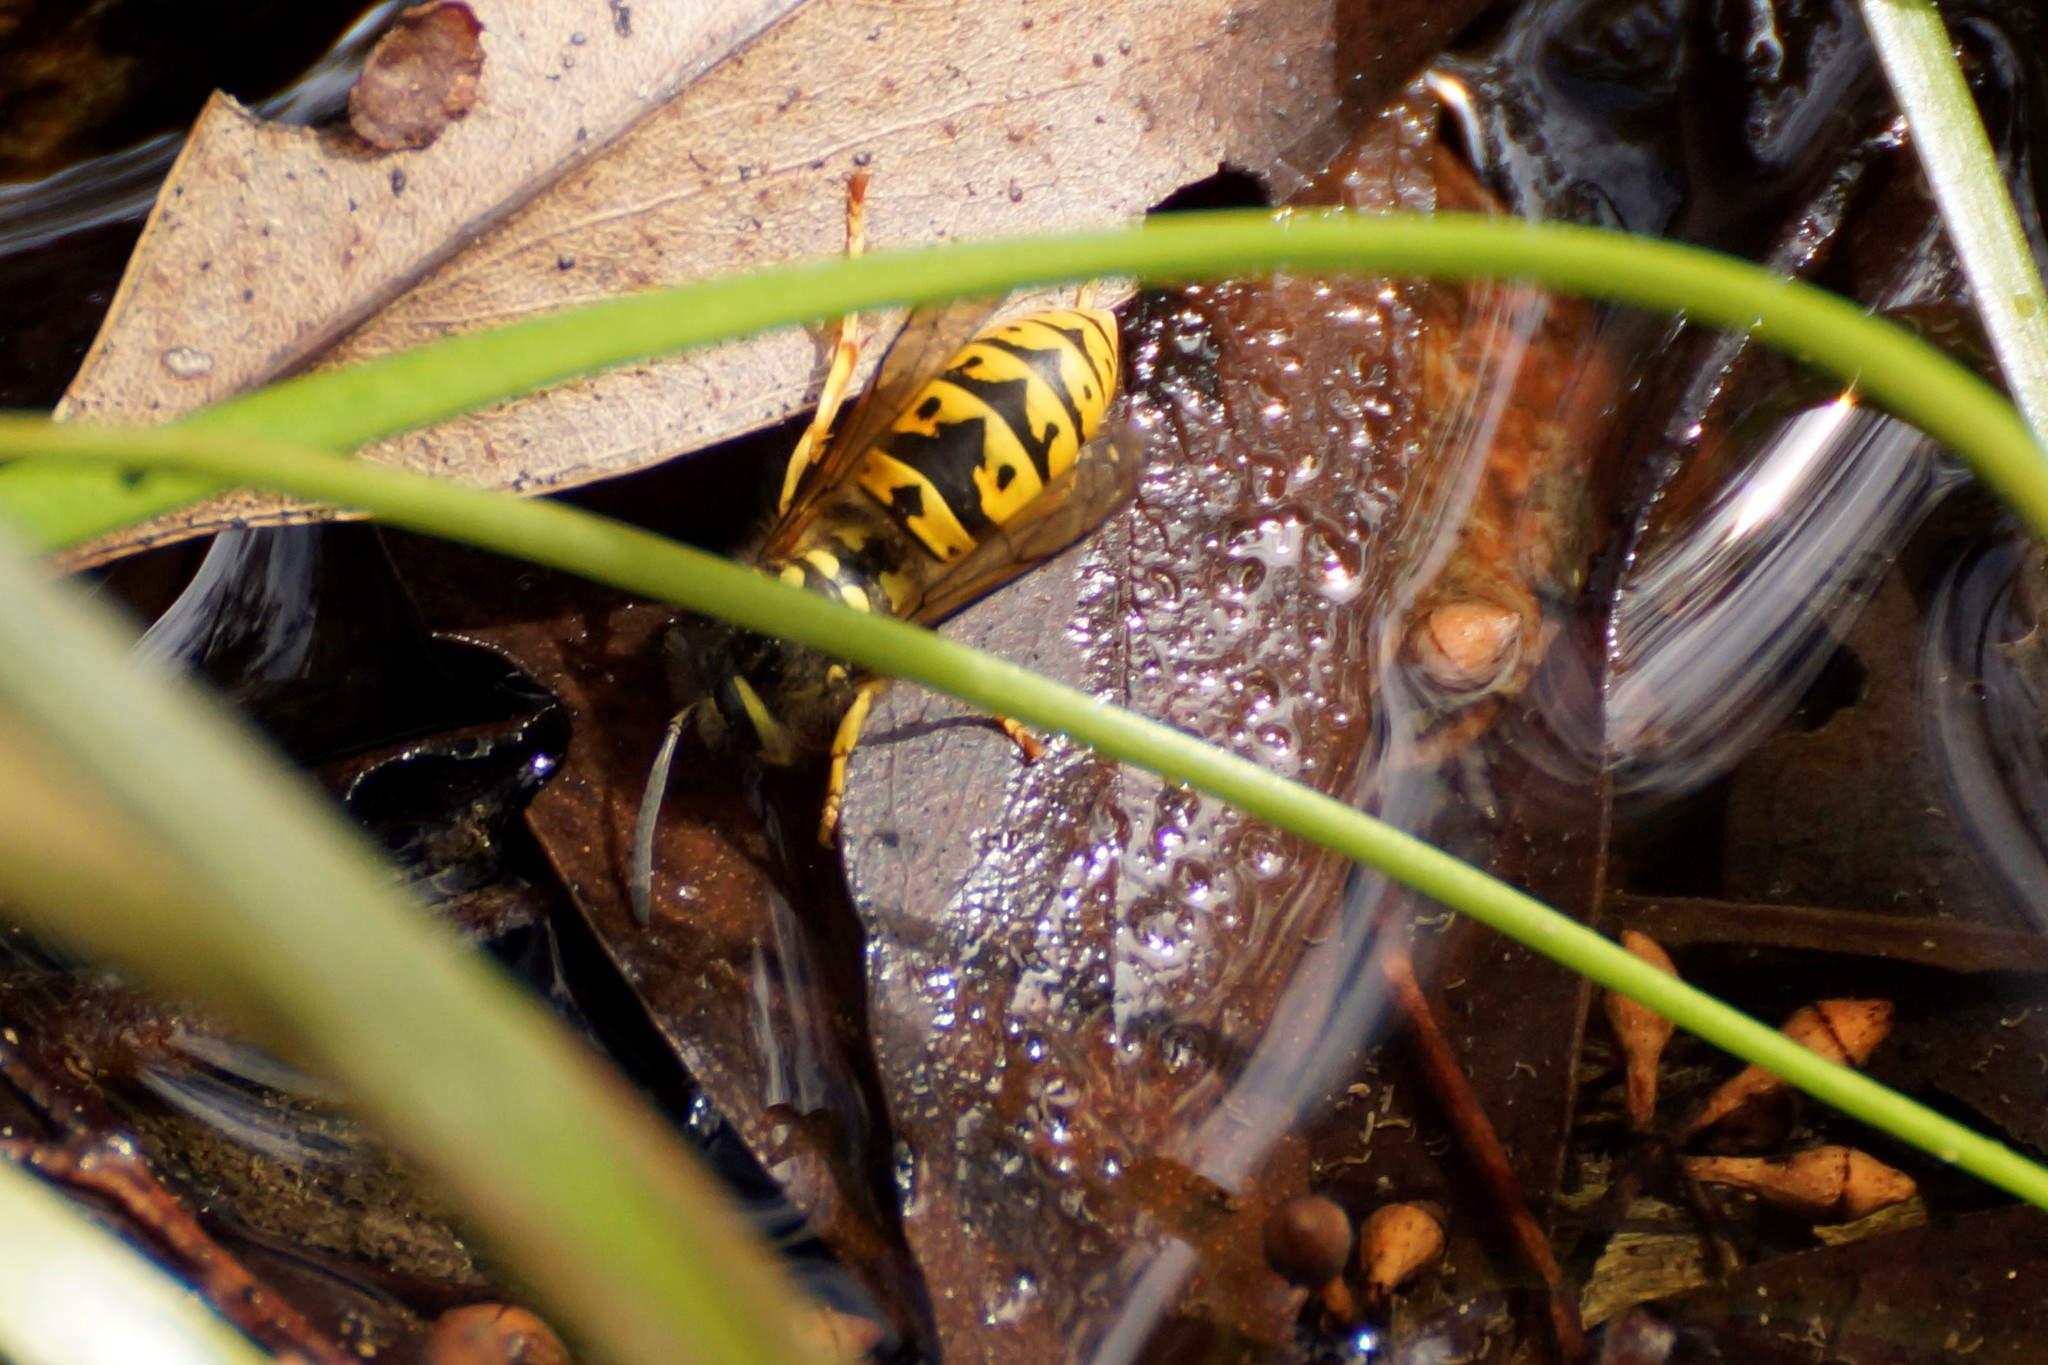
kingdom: Animalia
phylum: Arthropoda
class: Insecta
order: Hymenoptera
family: Vespidae
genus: Vespula
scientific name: Vespula germanica
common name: German wasp
